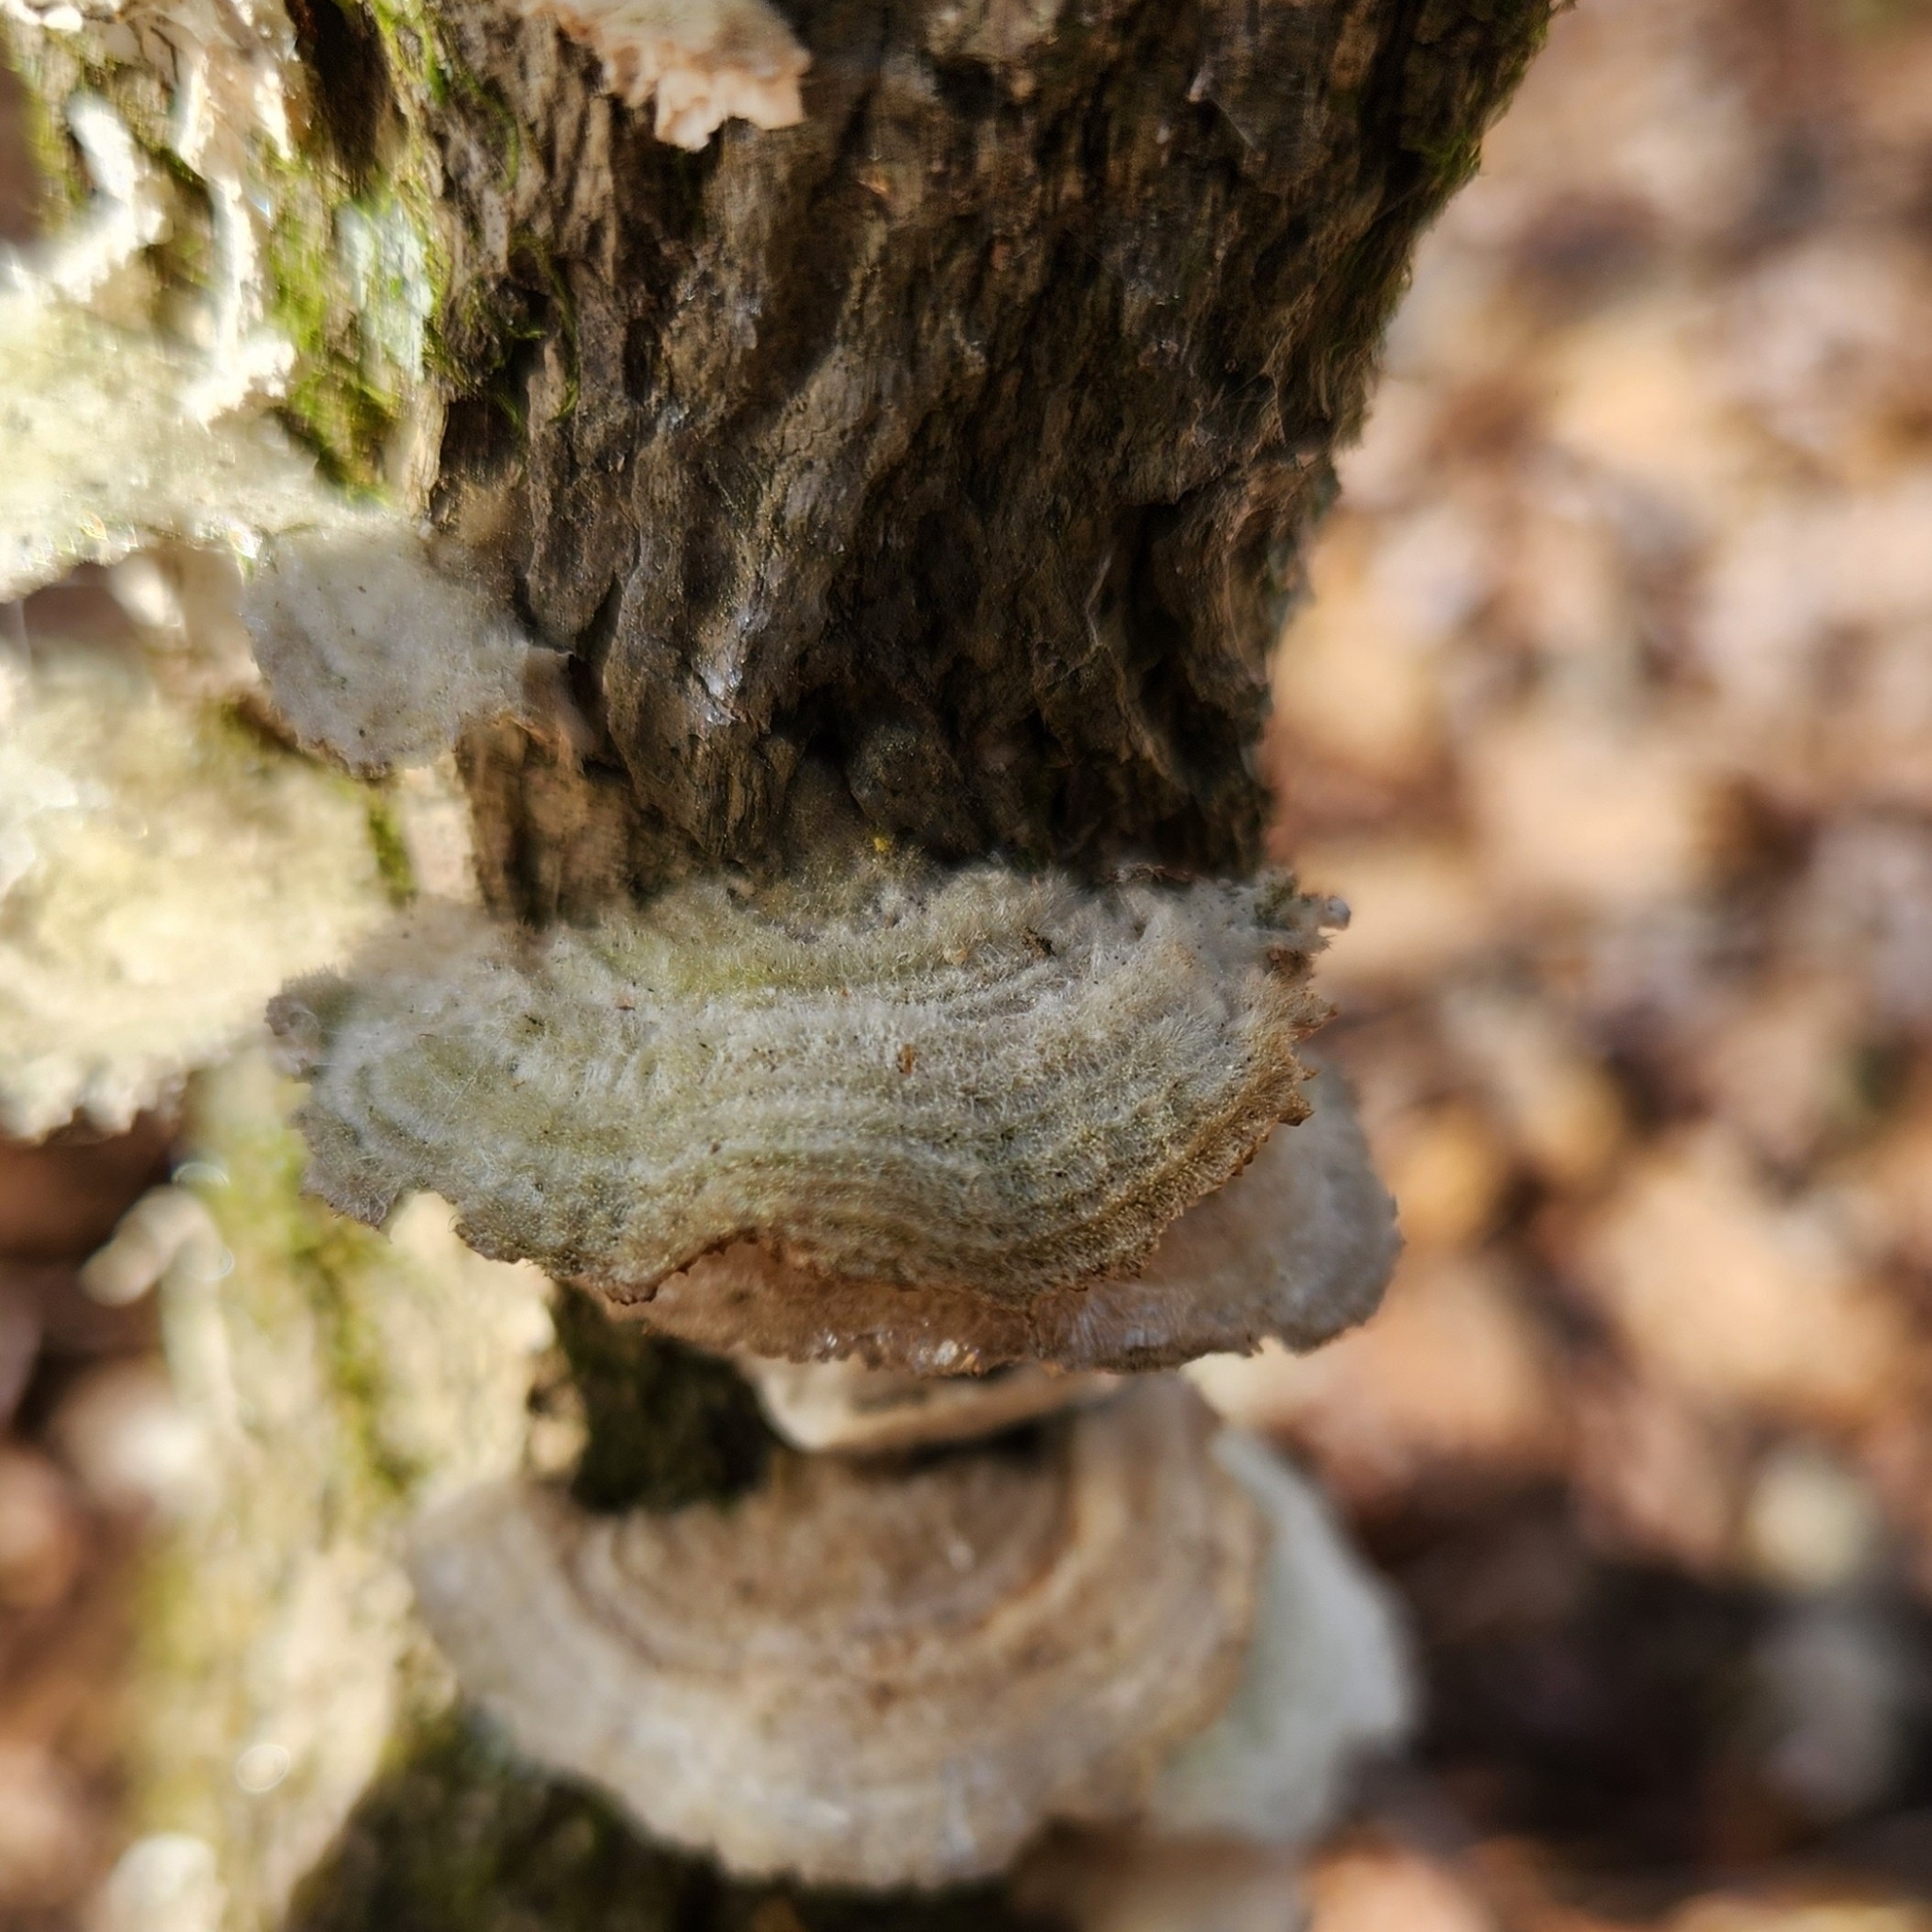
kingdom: Fungi
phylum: Basidiomycota
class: Agaricomycetes
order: Polyporales
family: Polyporaceae
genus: Lenzites
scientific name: Lenzites betulinus
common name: Birch mazegill
